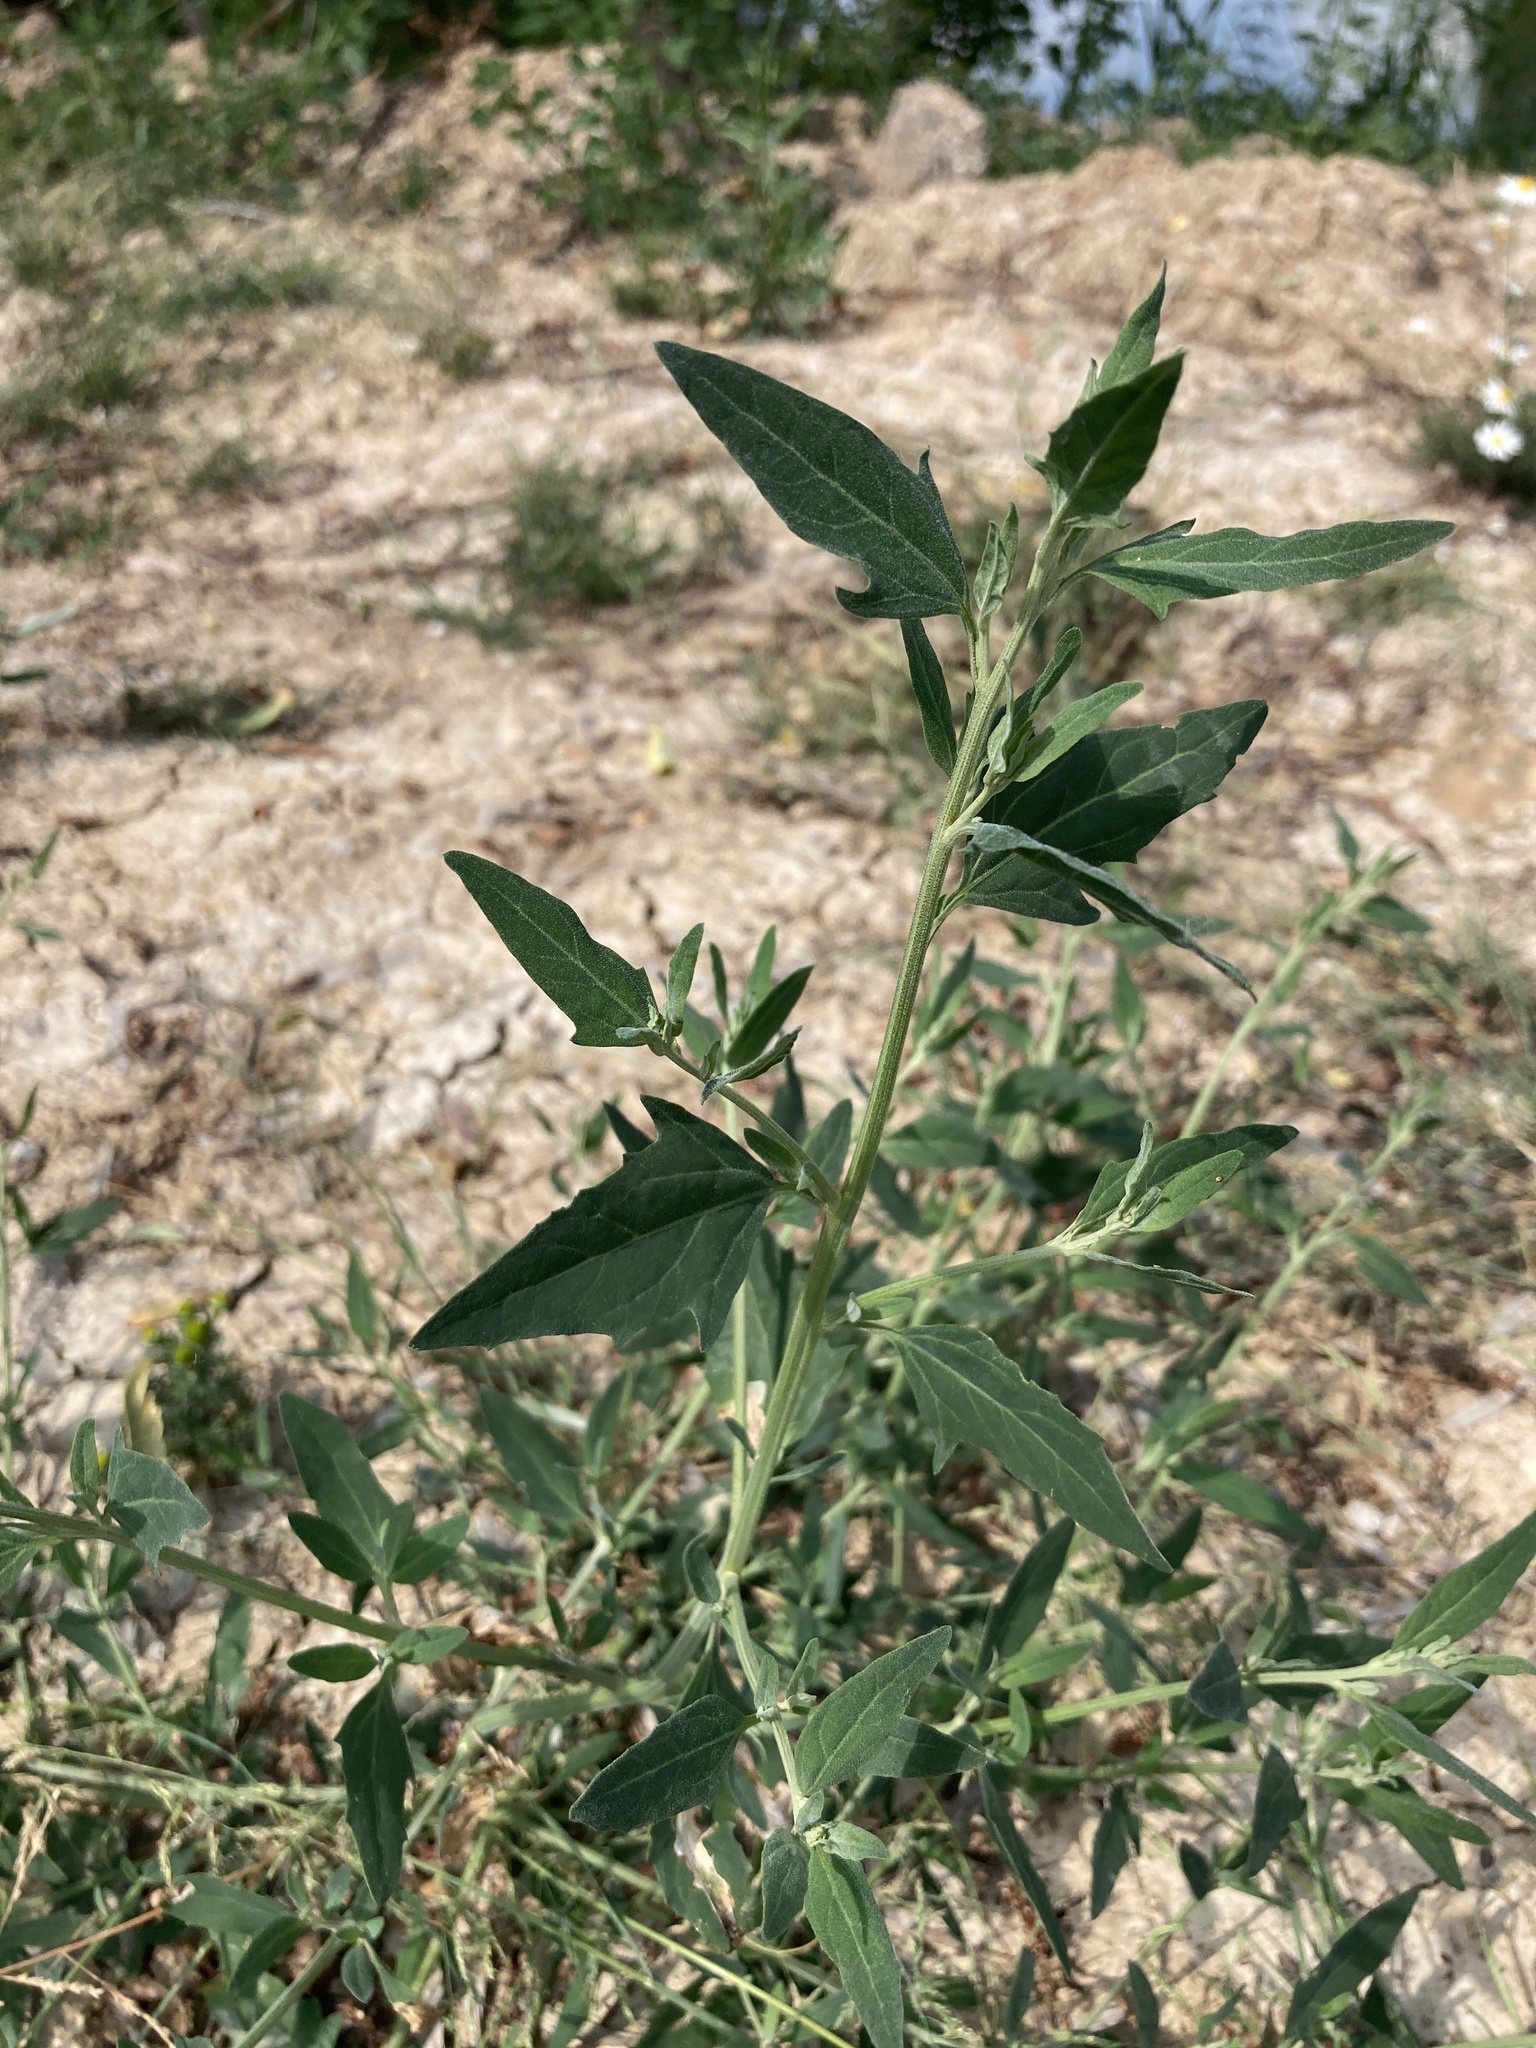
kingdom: Plantae
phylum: Tracheophyta
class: Magnoliopsida
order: Caryophyllales
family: Amaranthaceae
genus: Atriplex
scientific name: Atriplex patula
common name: Common orache
